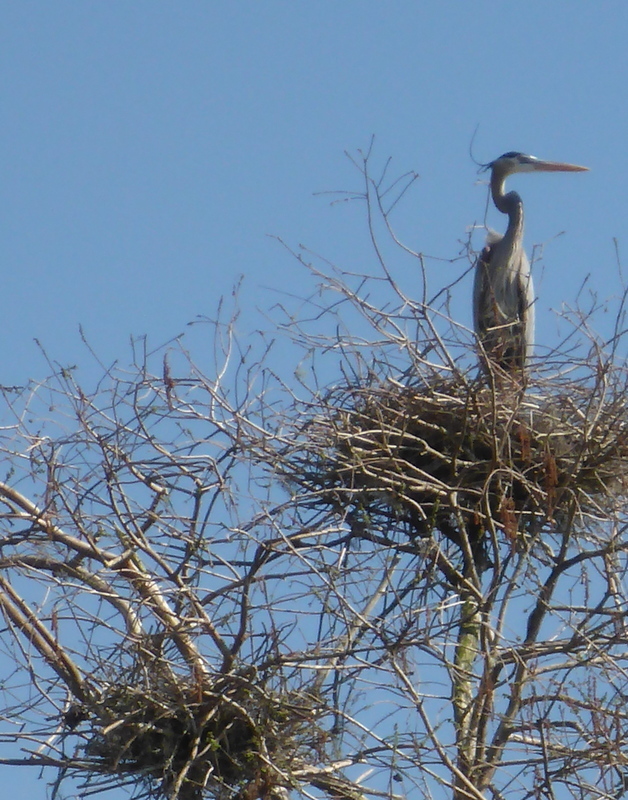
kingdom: Animalia
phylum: Chordata
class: Aves
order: Pelecaniformes
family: Ardeidae
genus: Ardea
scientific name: Ardea herodias
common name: Great blue heron
